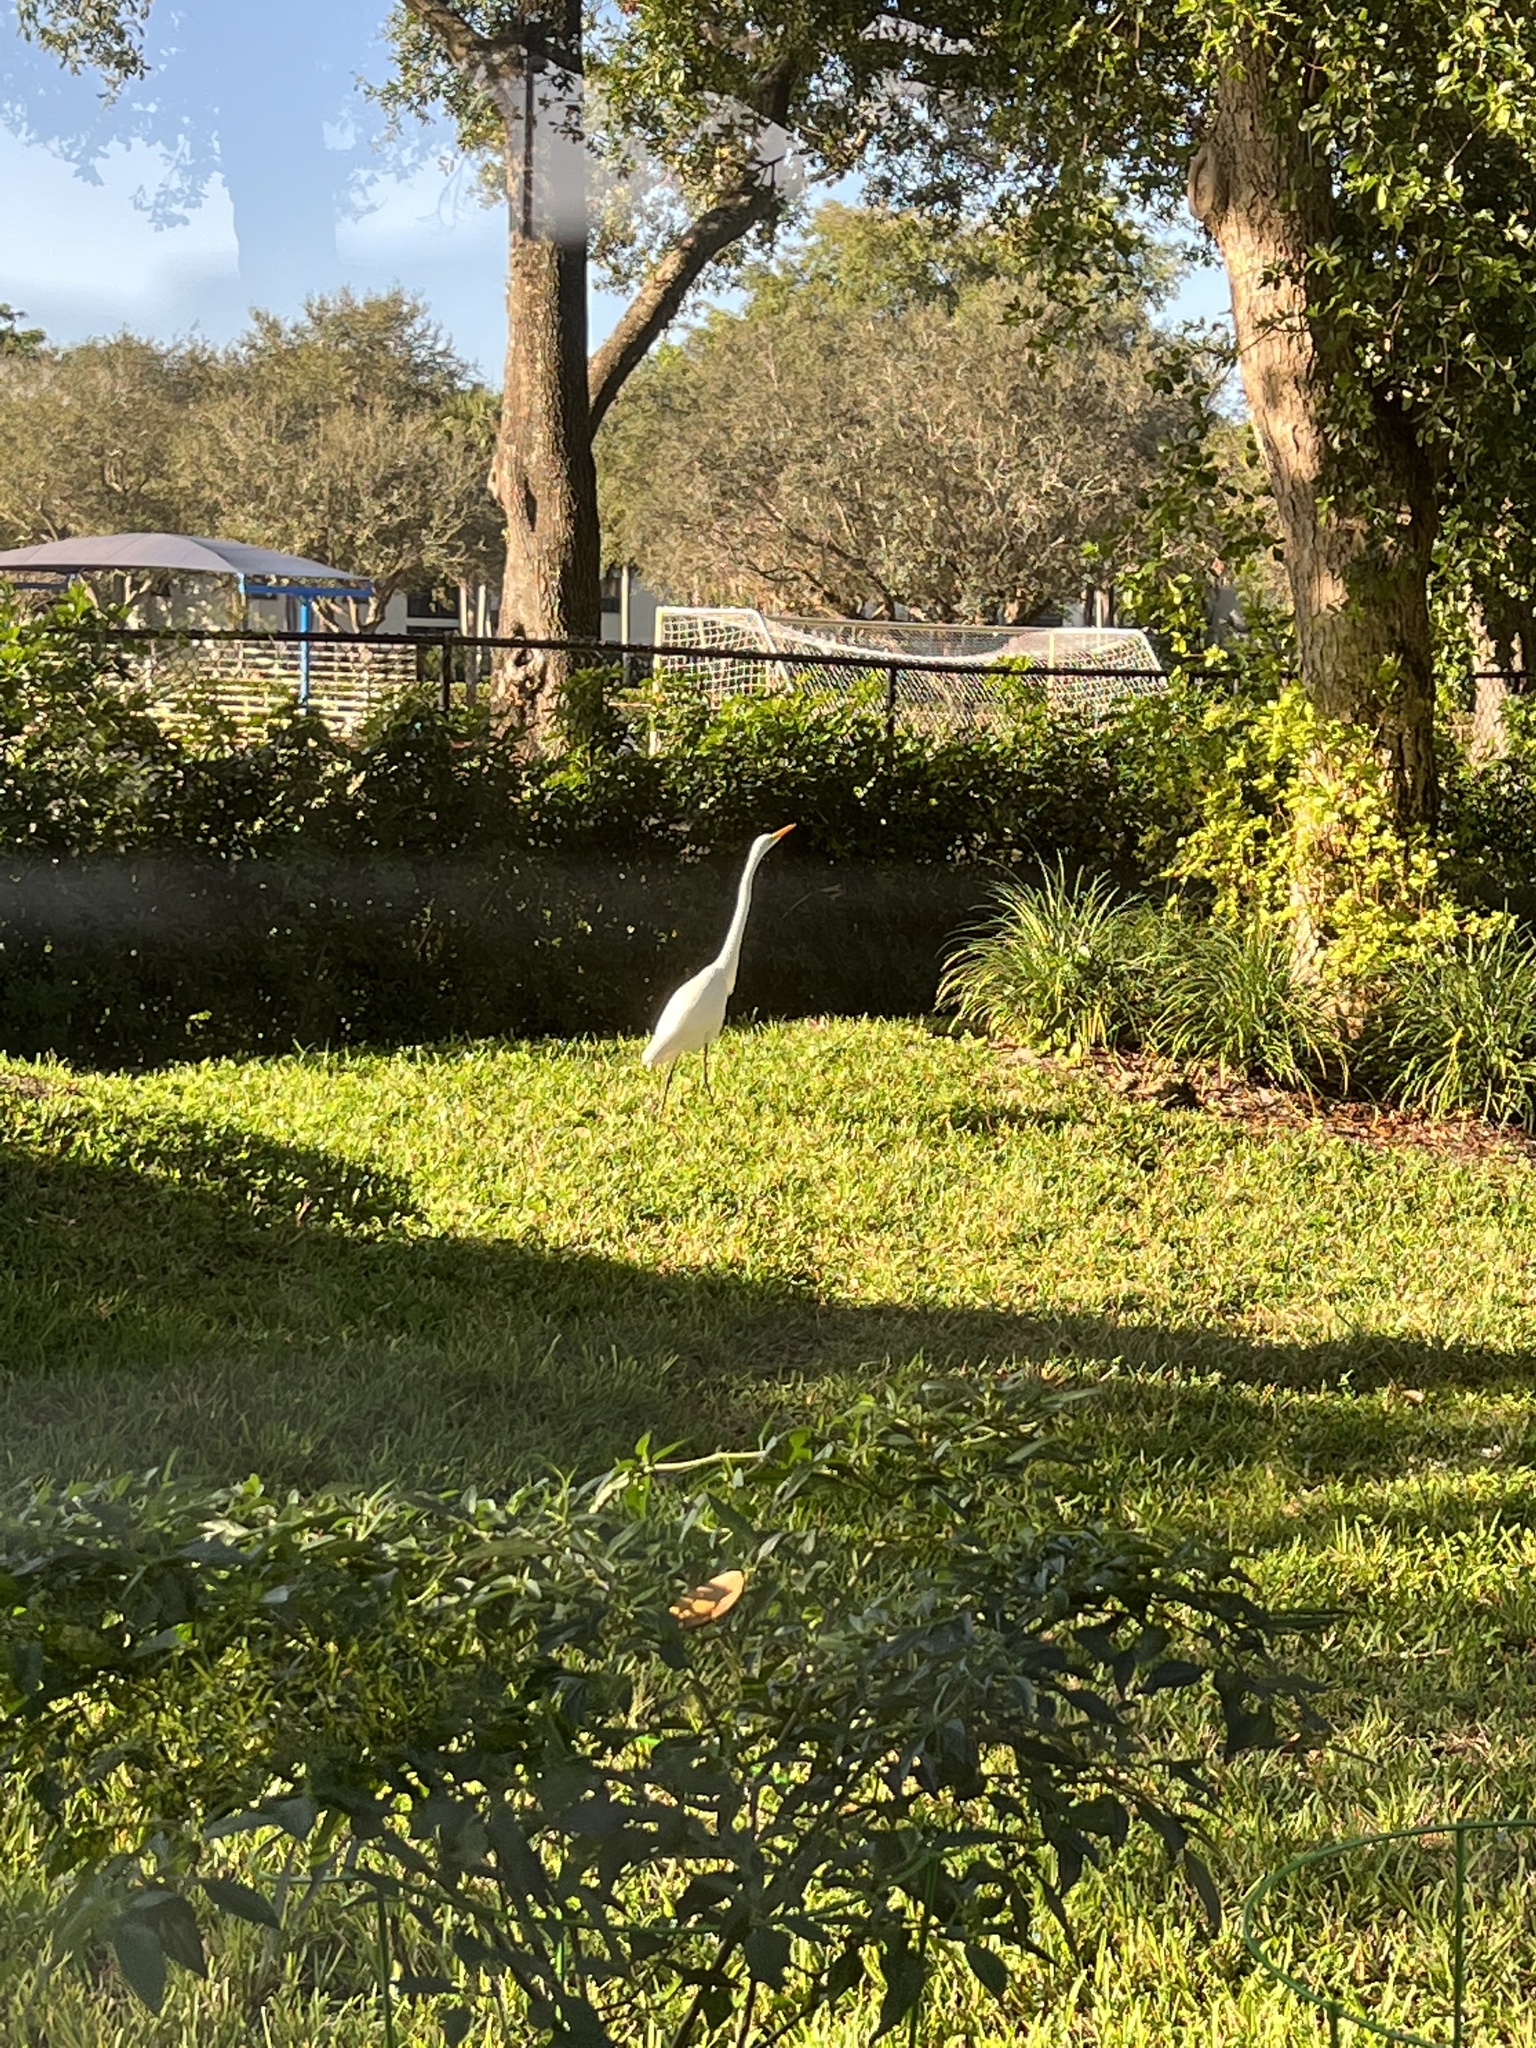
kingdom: Animalia
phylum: Chordata
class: Aves
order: Pelecaniformes
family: Ardeidae
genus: Ardea
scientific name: Ardea alba
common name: Great egret
